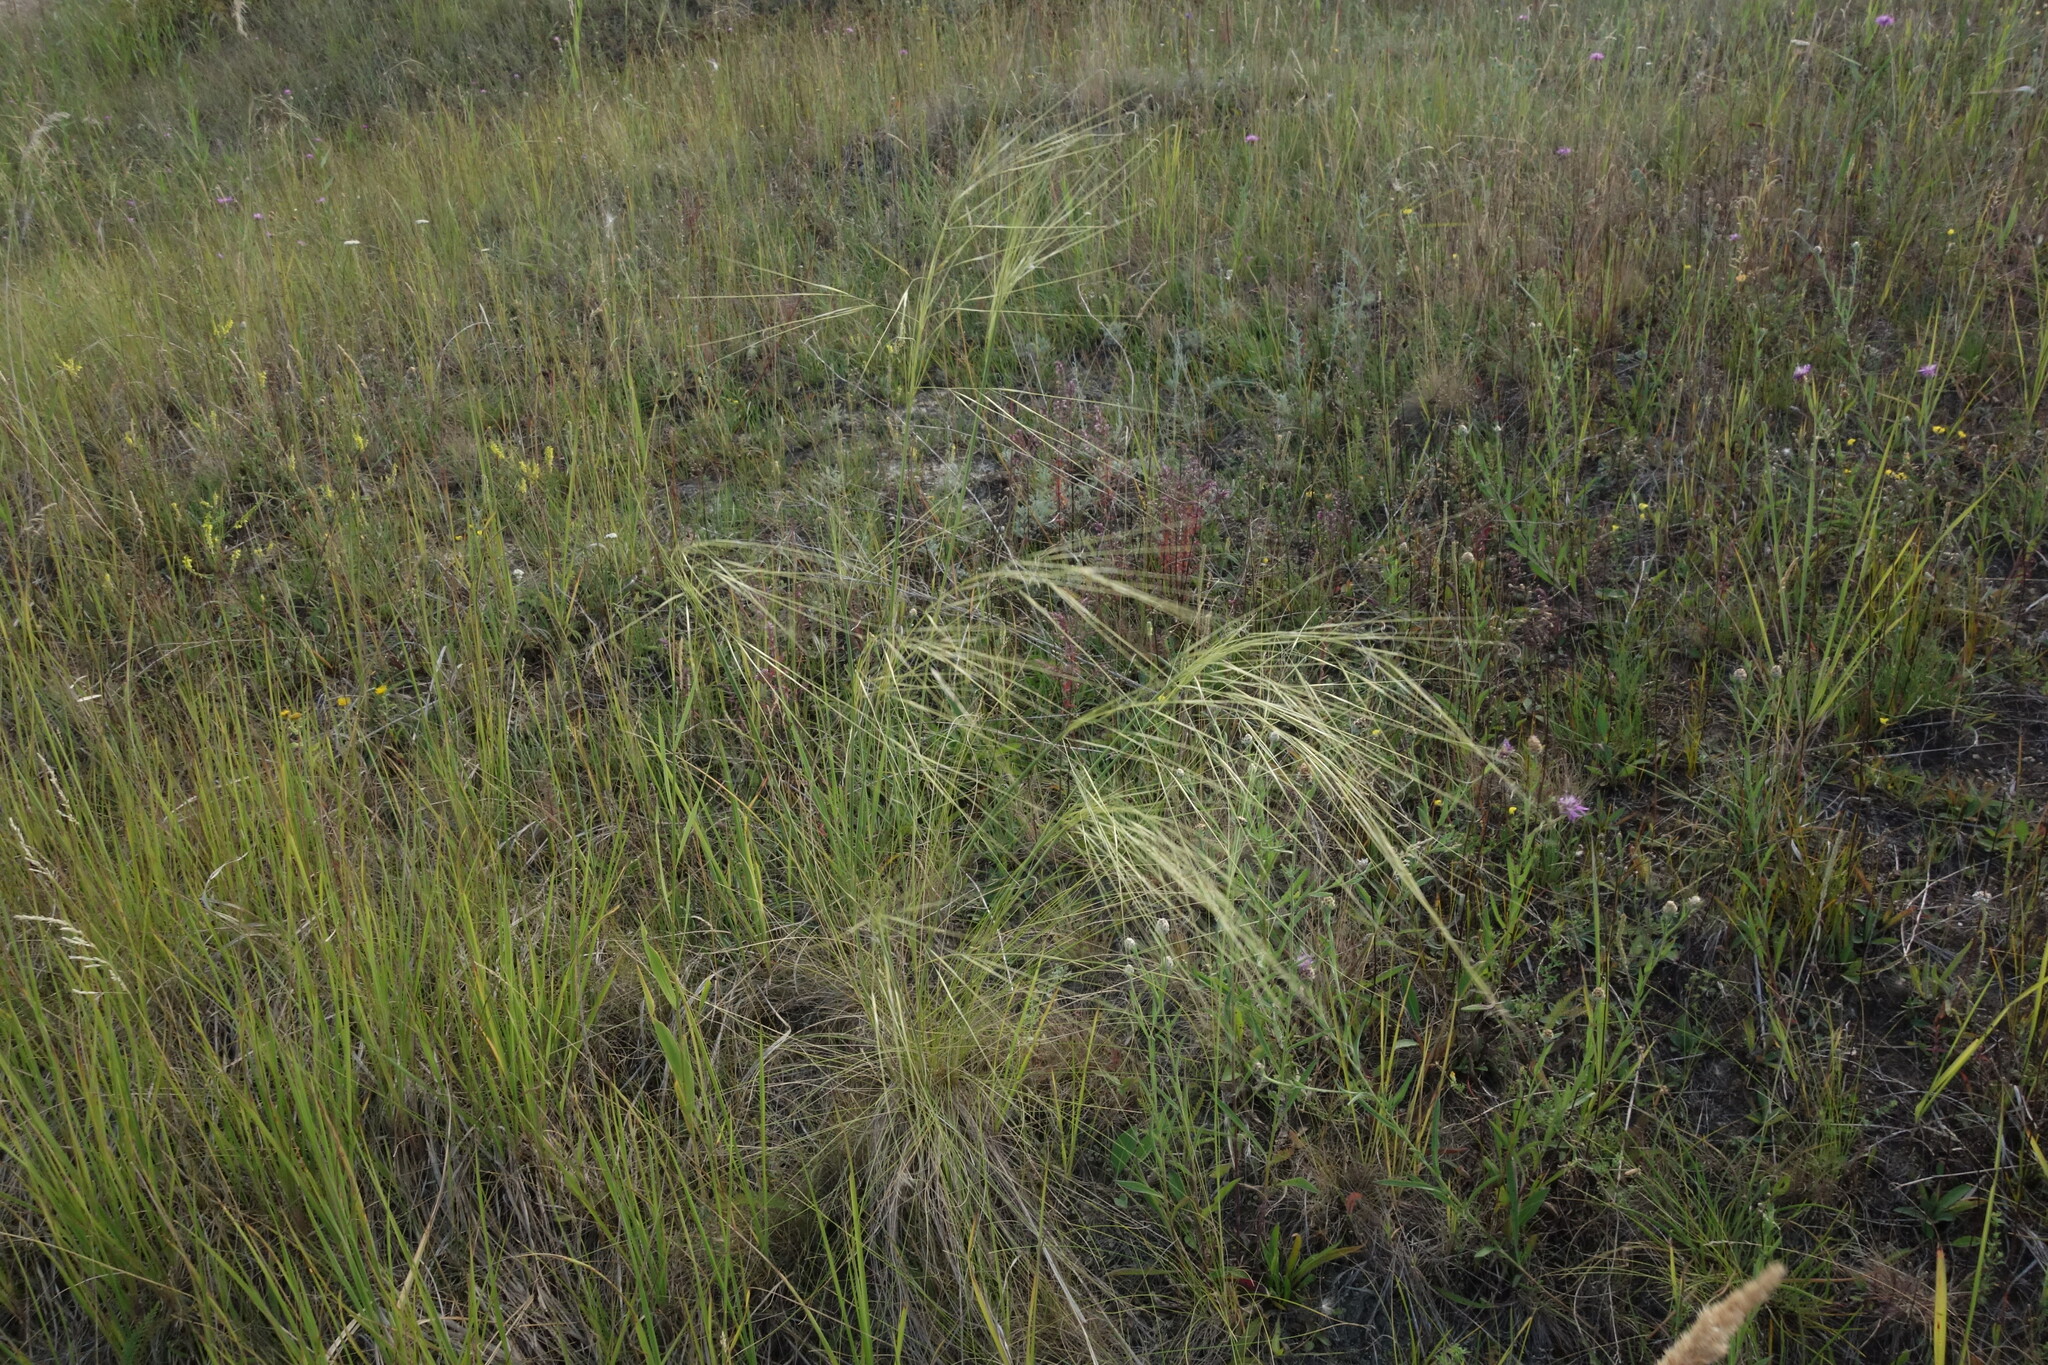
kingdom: Plantae
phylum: Tracheophyta
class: Liliopsida
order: Poales
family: Poaceae
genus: Stipa
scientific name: Stipa capillata
